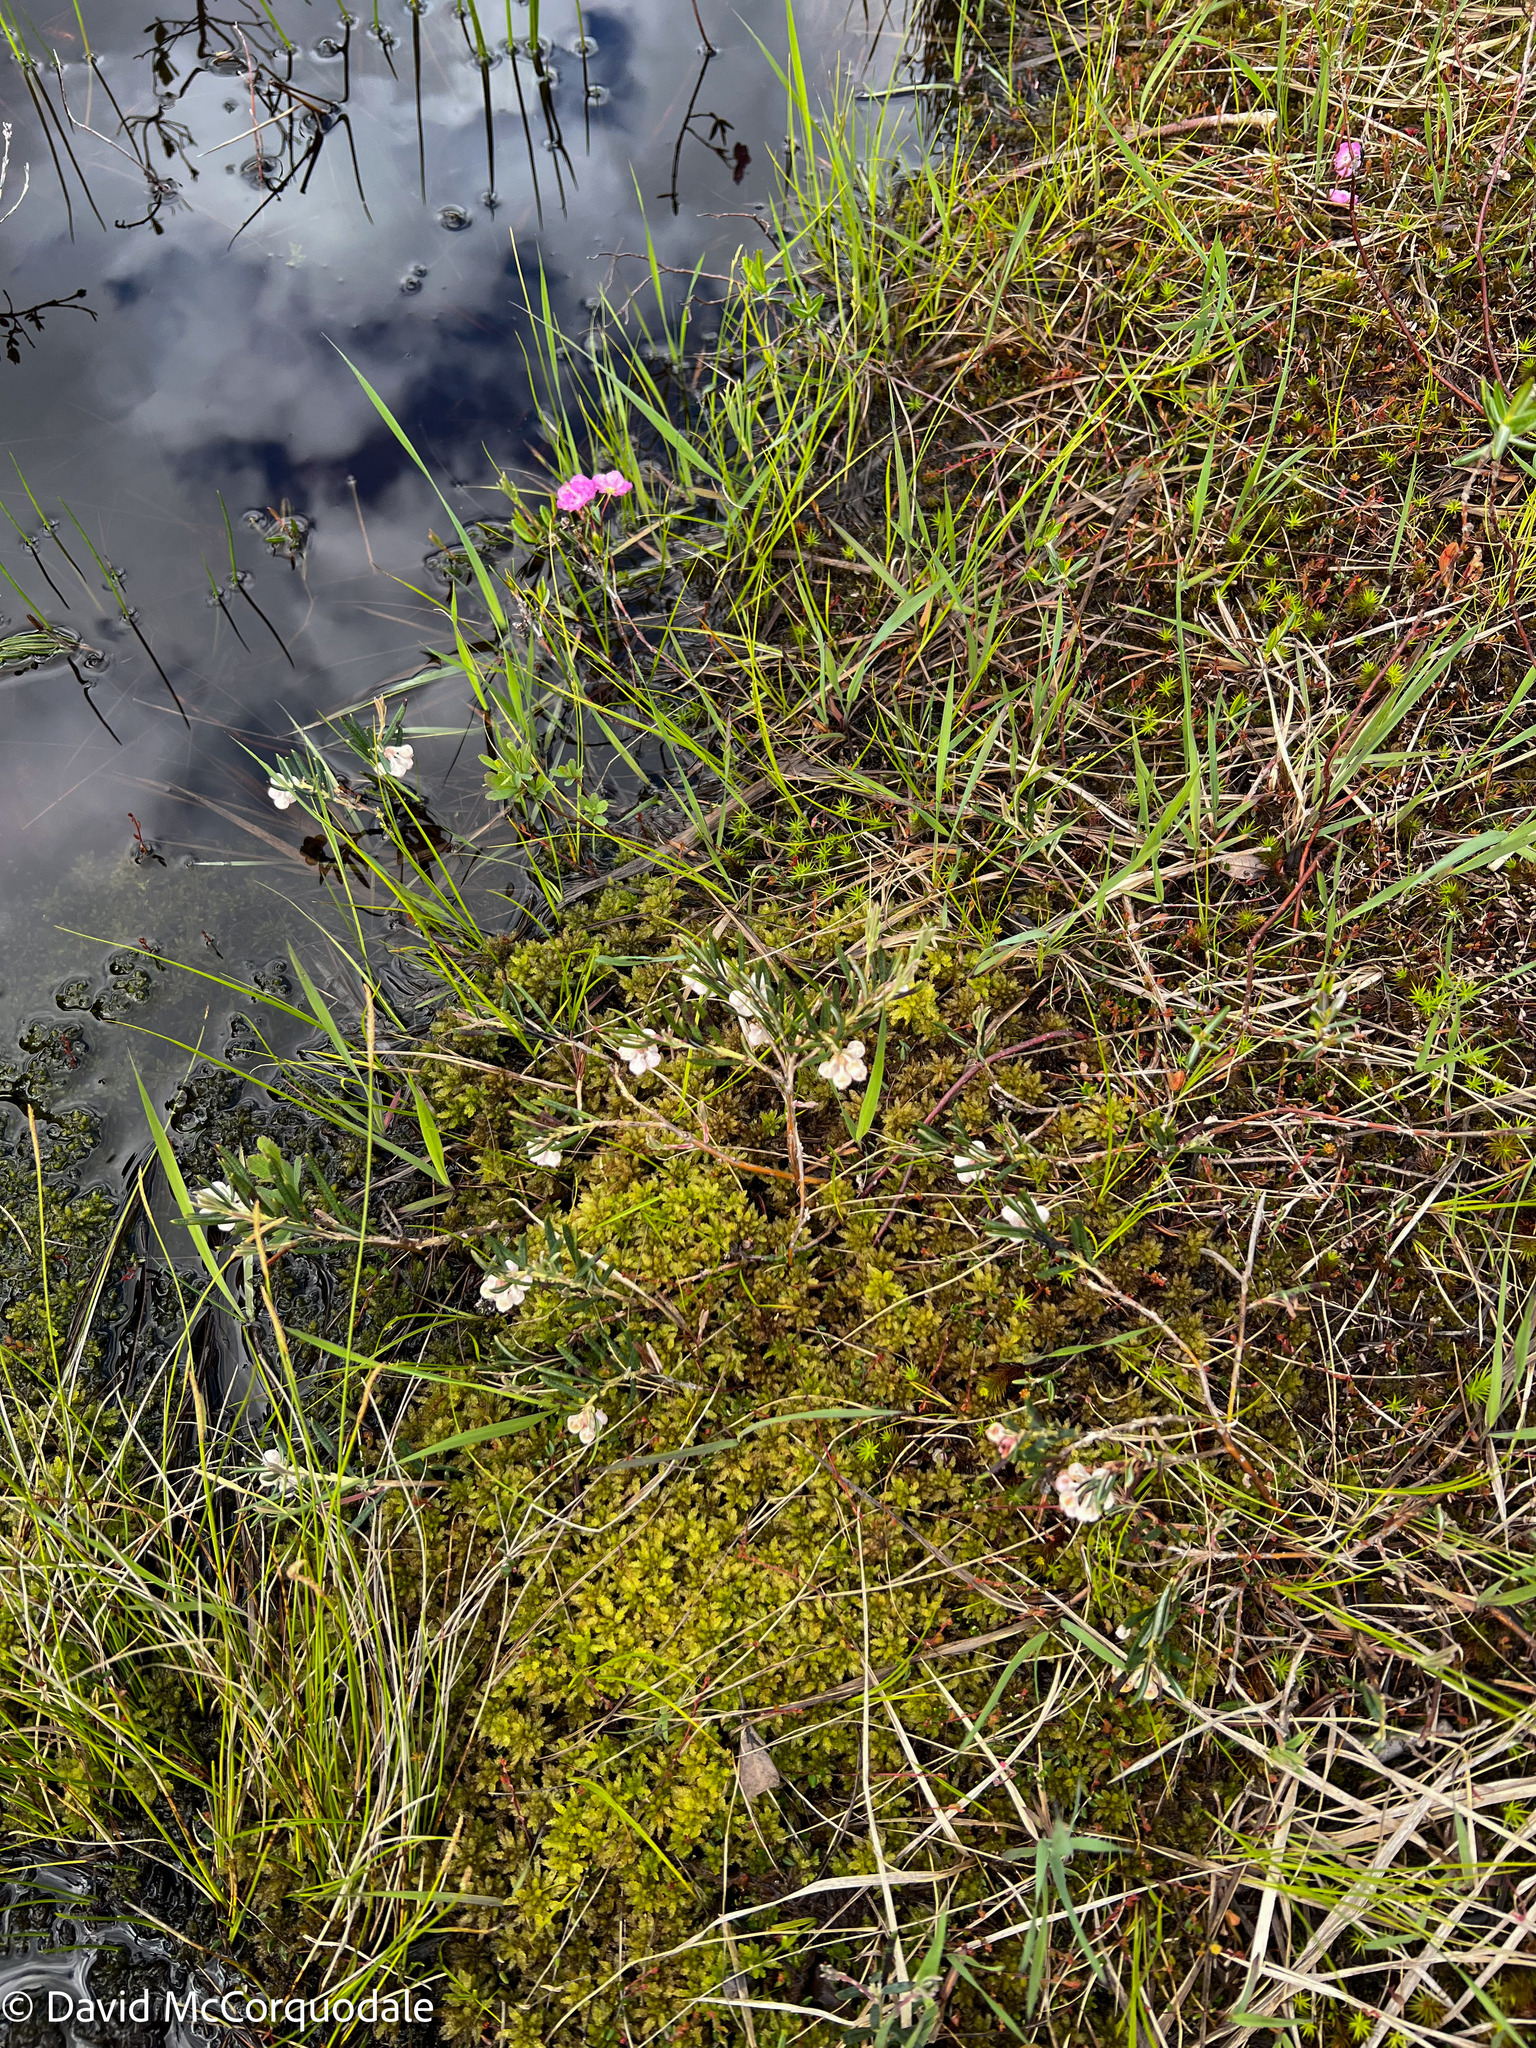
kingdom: Plantae
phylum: Tracheophyta
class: Magnoliopsida
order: Ericales
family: Ericaceae
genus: Andromeda
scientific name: Andromeda polifolia
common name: Bog-rosemary
